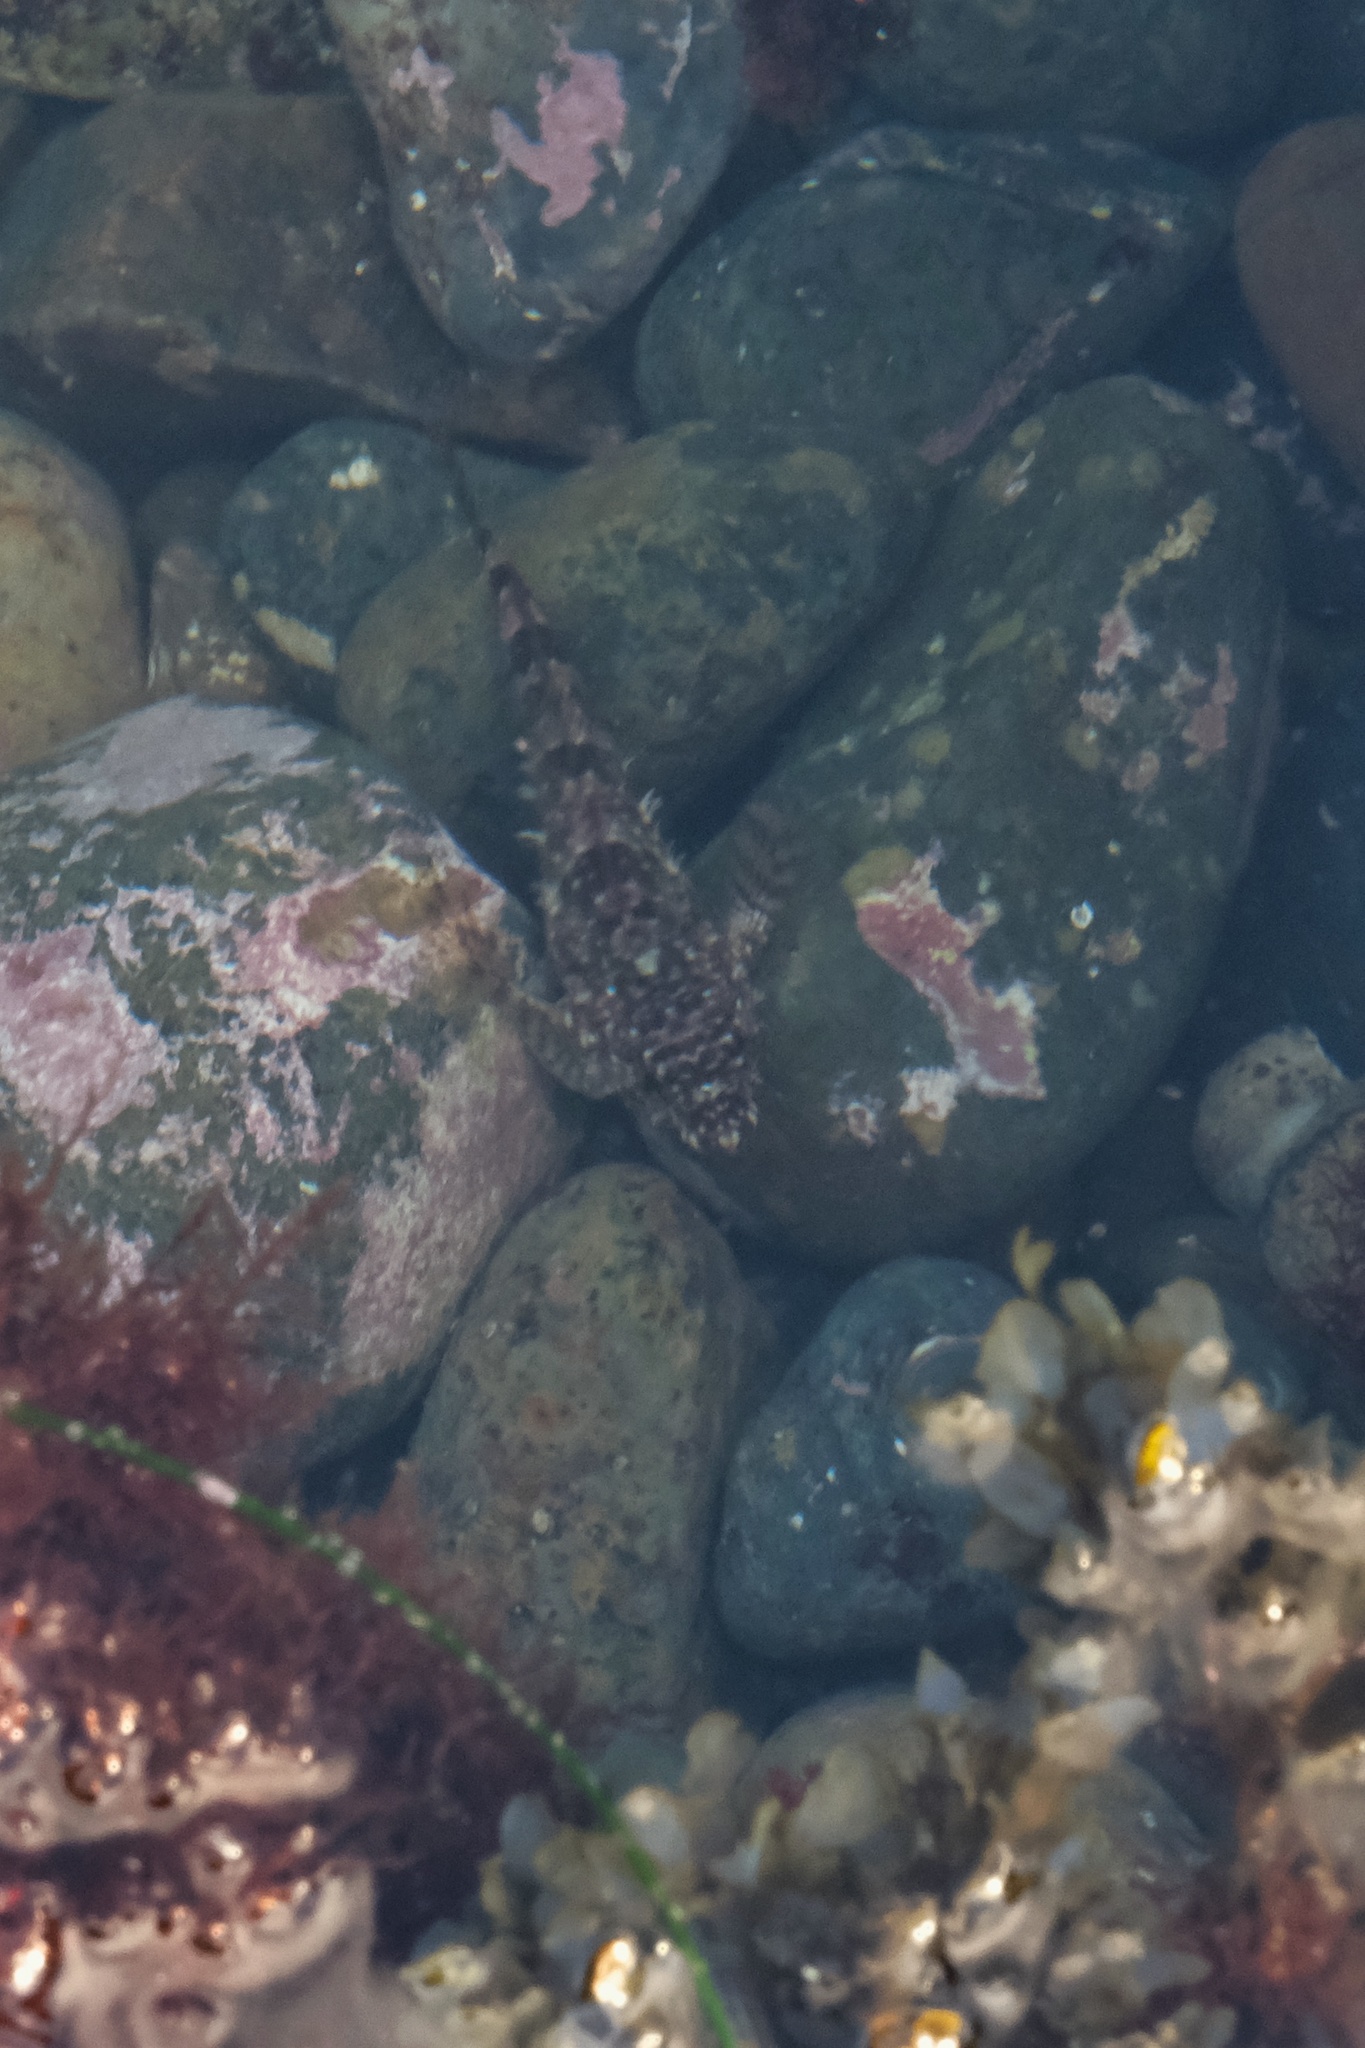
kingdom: Animalia
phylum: Chordata
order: Scorpaeniformes
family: Cottidae
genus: Clinocottus
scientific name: Clinocottus analis
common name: Woolly sculpin
